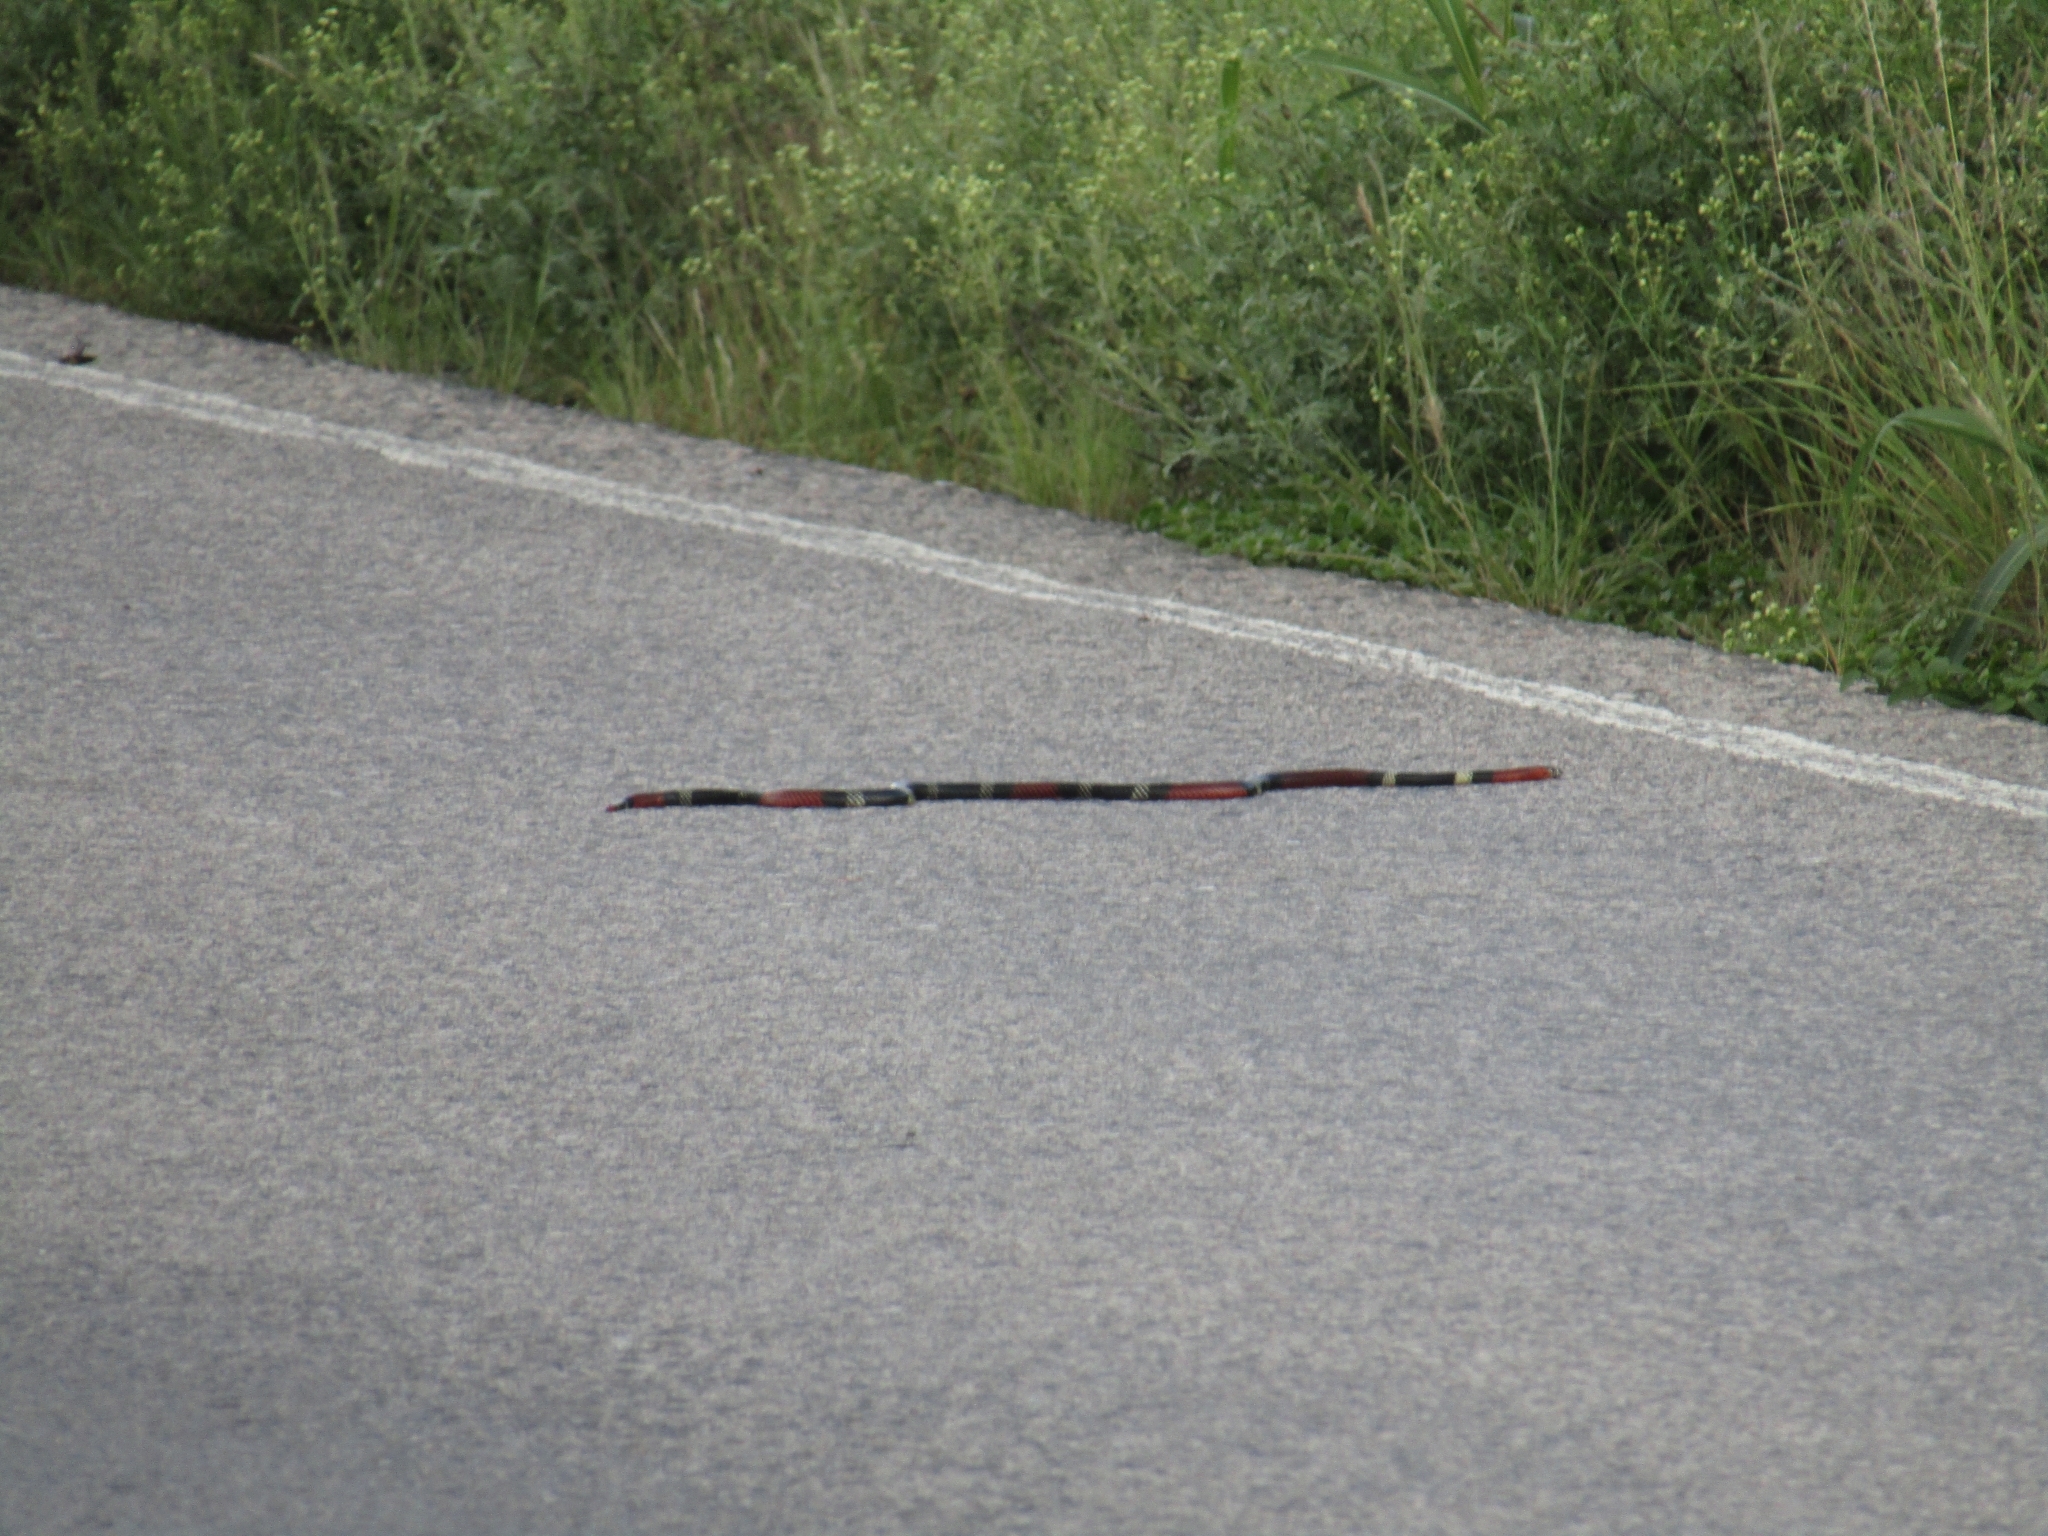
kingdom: Animalia
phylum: Chordata
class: Squamata
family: Elapidae
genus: Micrurus
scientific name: Micrurus pyrrhocryptus
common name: Argentinian coral snake
